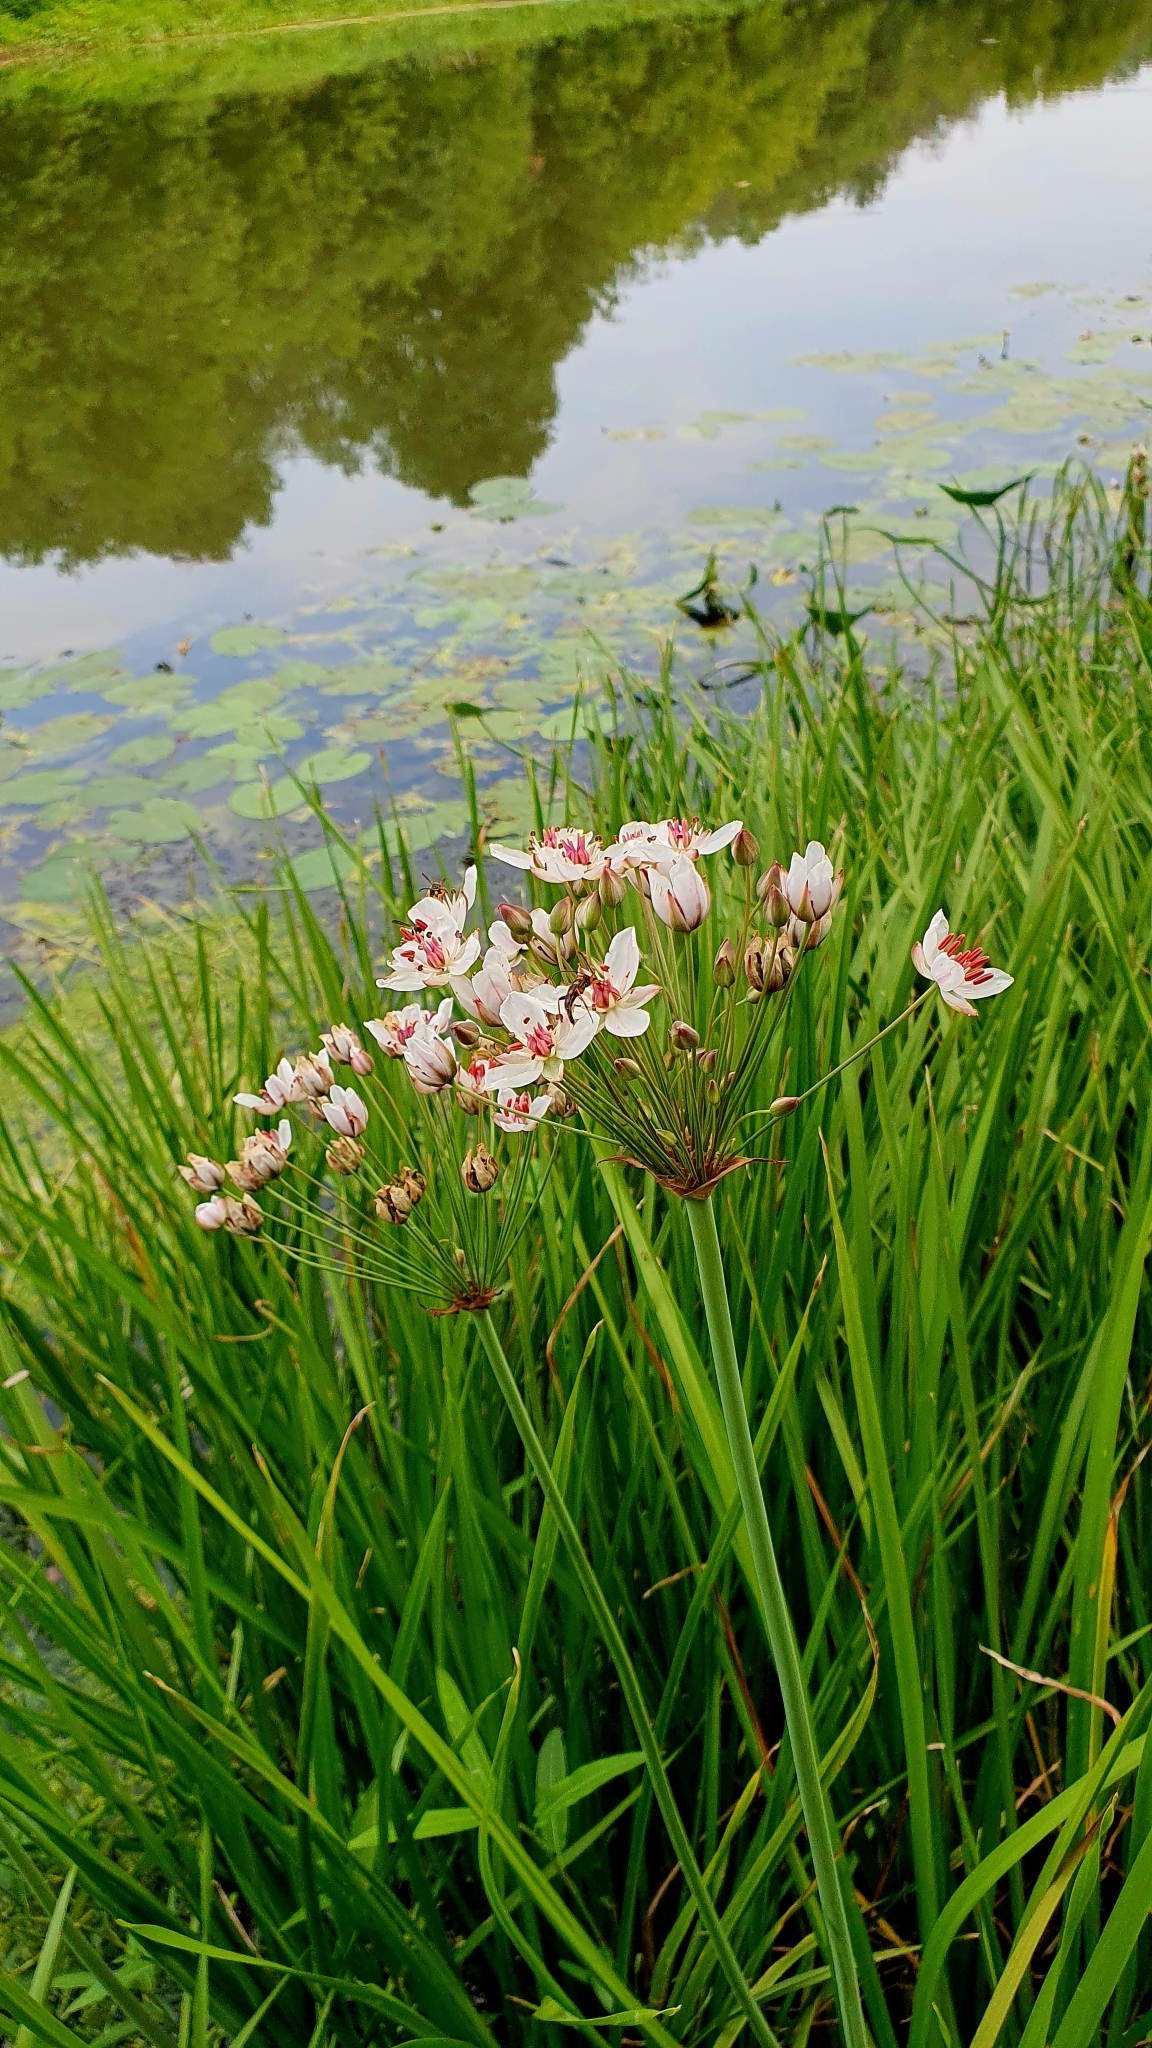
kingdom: Plantae
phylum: Tracheophyta
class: Liliopsida
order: Alismatales
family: Butomaceae
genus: Butomus
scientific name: Butomus umbellatus
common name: Flowering-rush
